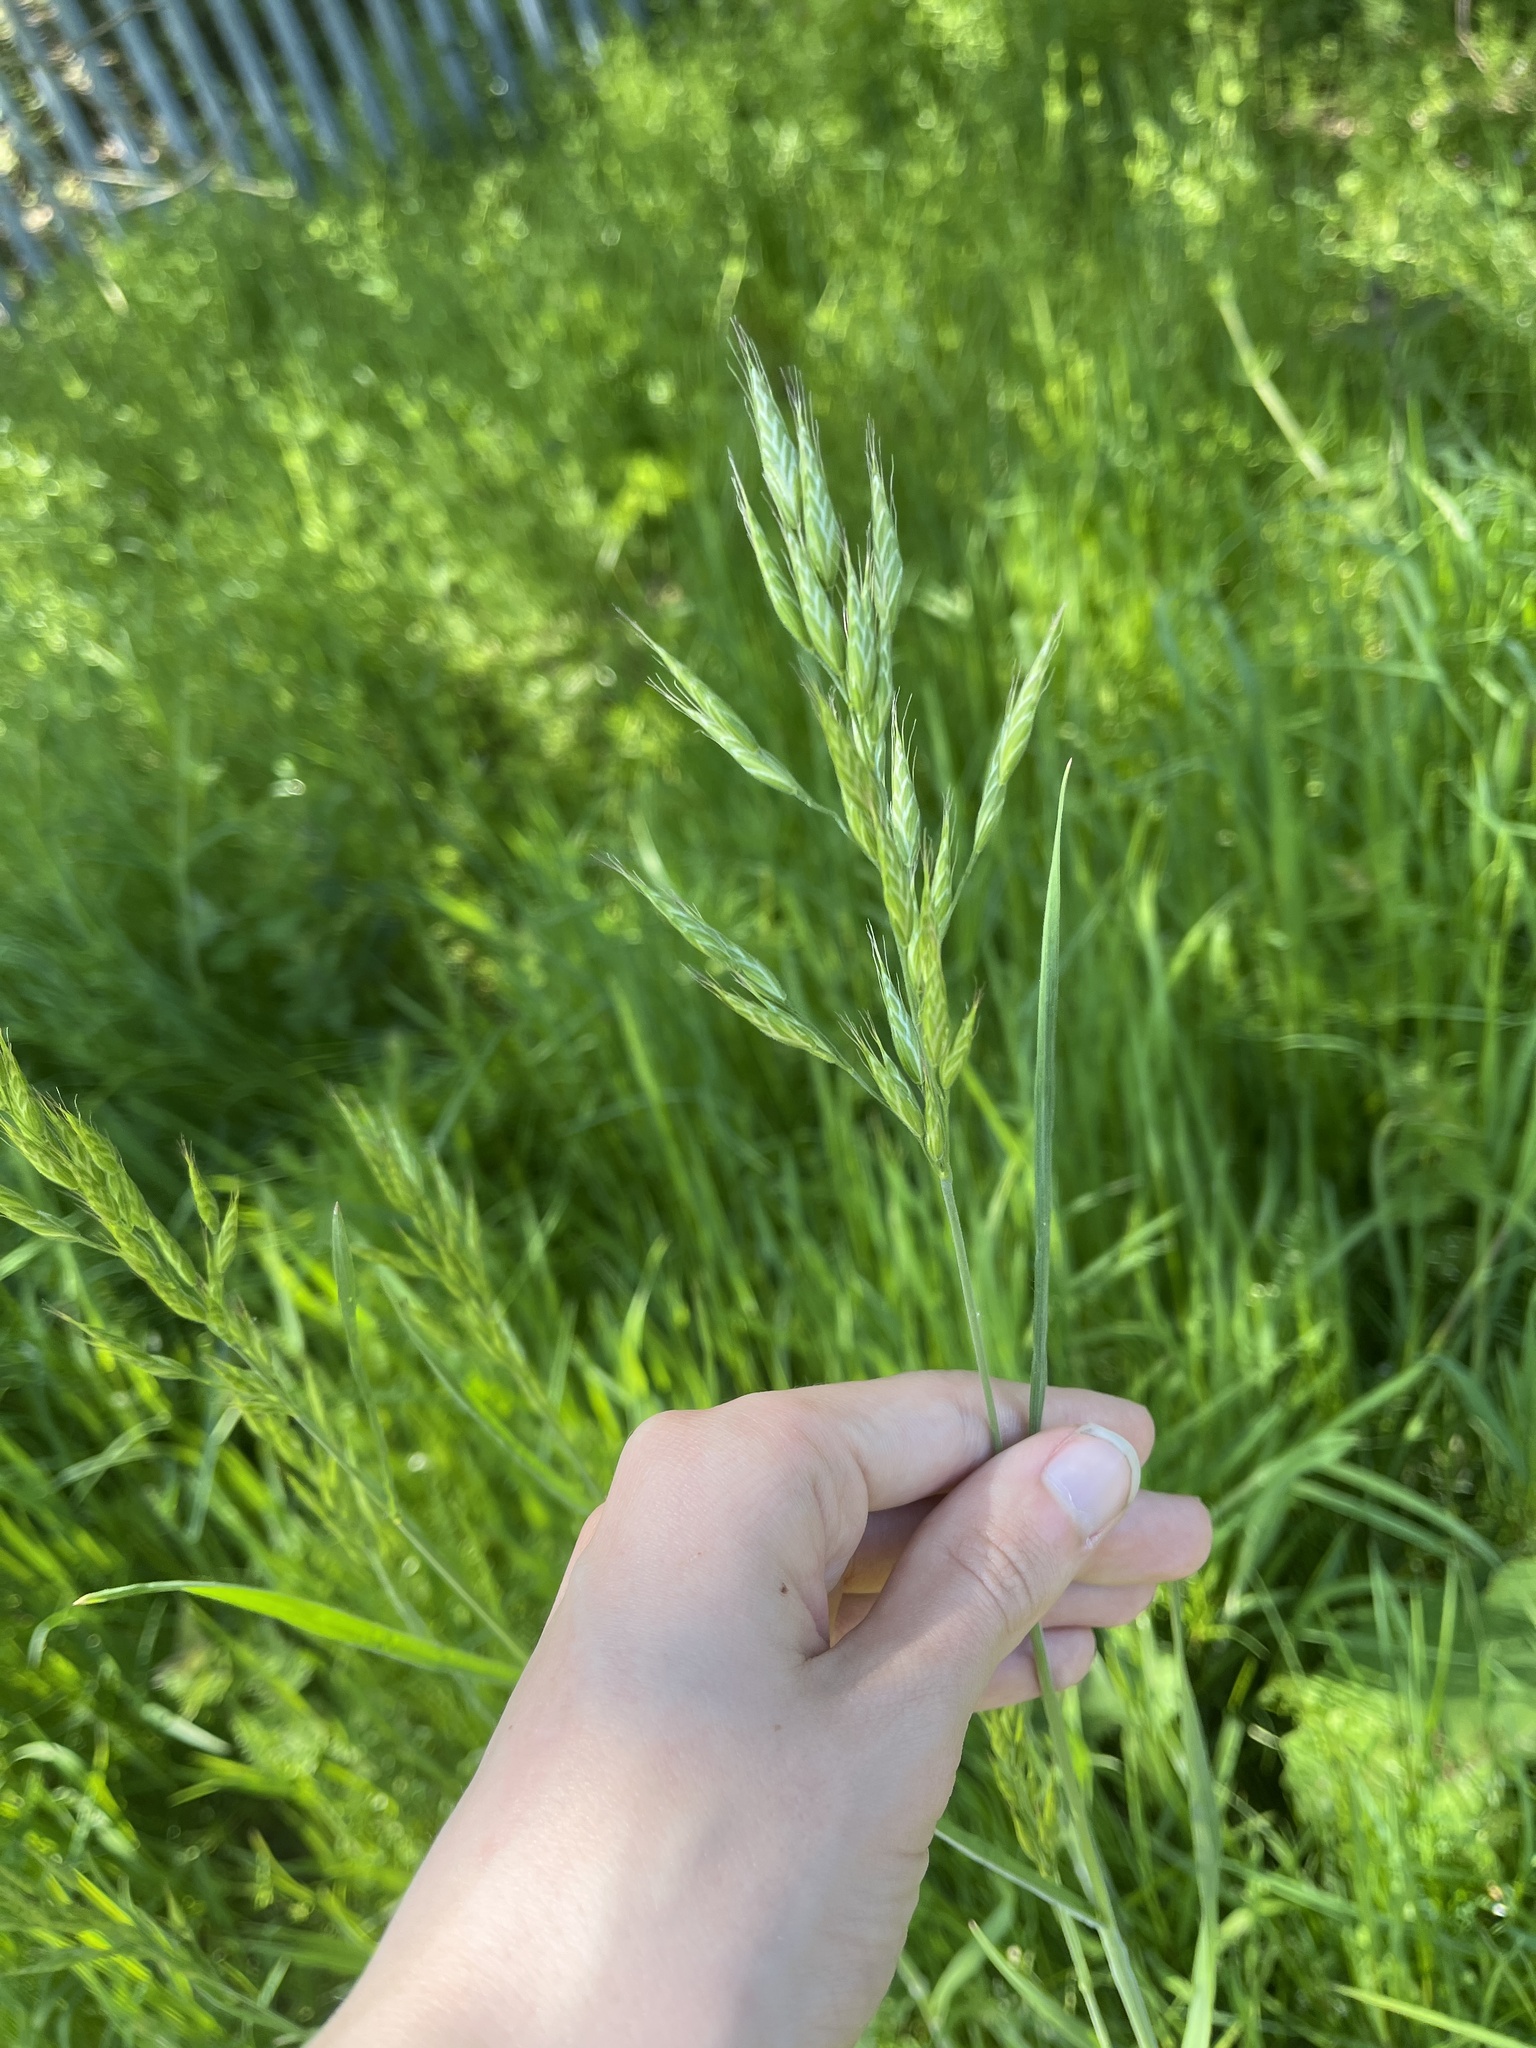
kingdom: Plantae
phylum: Tracheophyta
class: Liliopsida
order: Poales
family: Poaceae
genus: Bromus
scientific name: Bromus hordeaceus
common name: Soft brome
